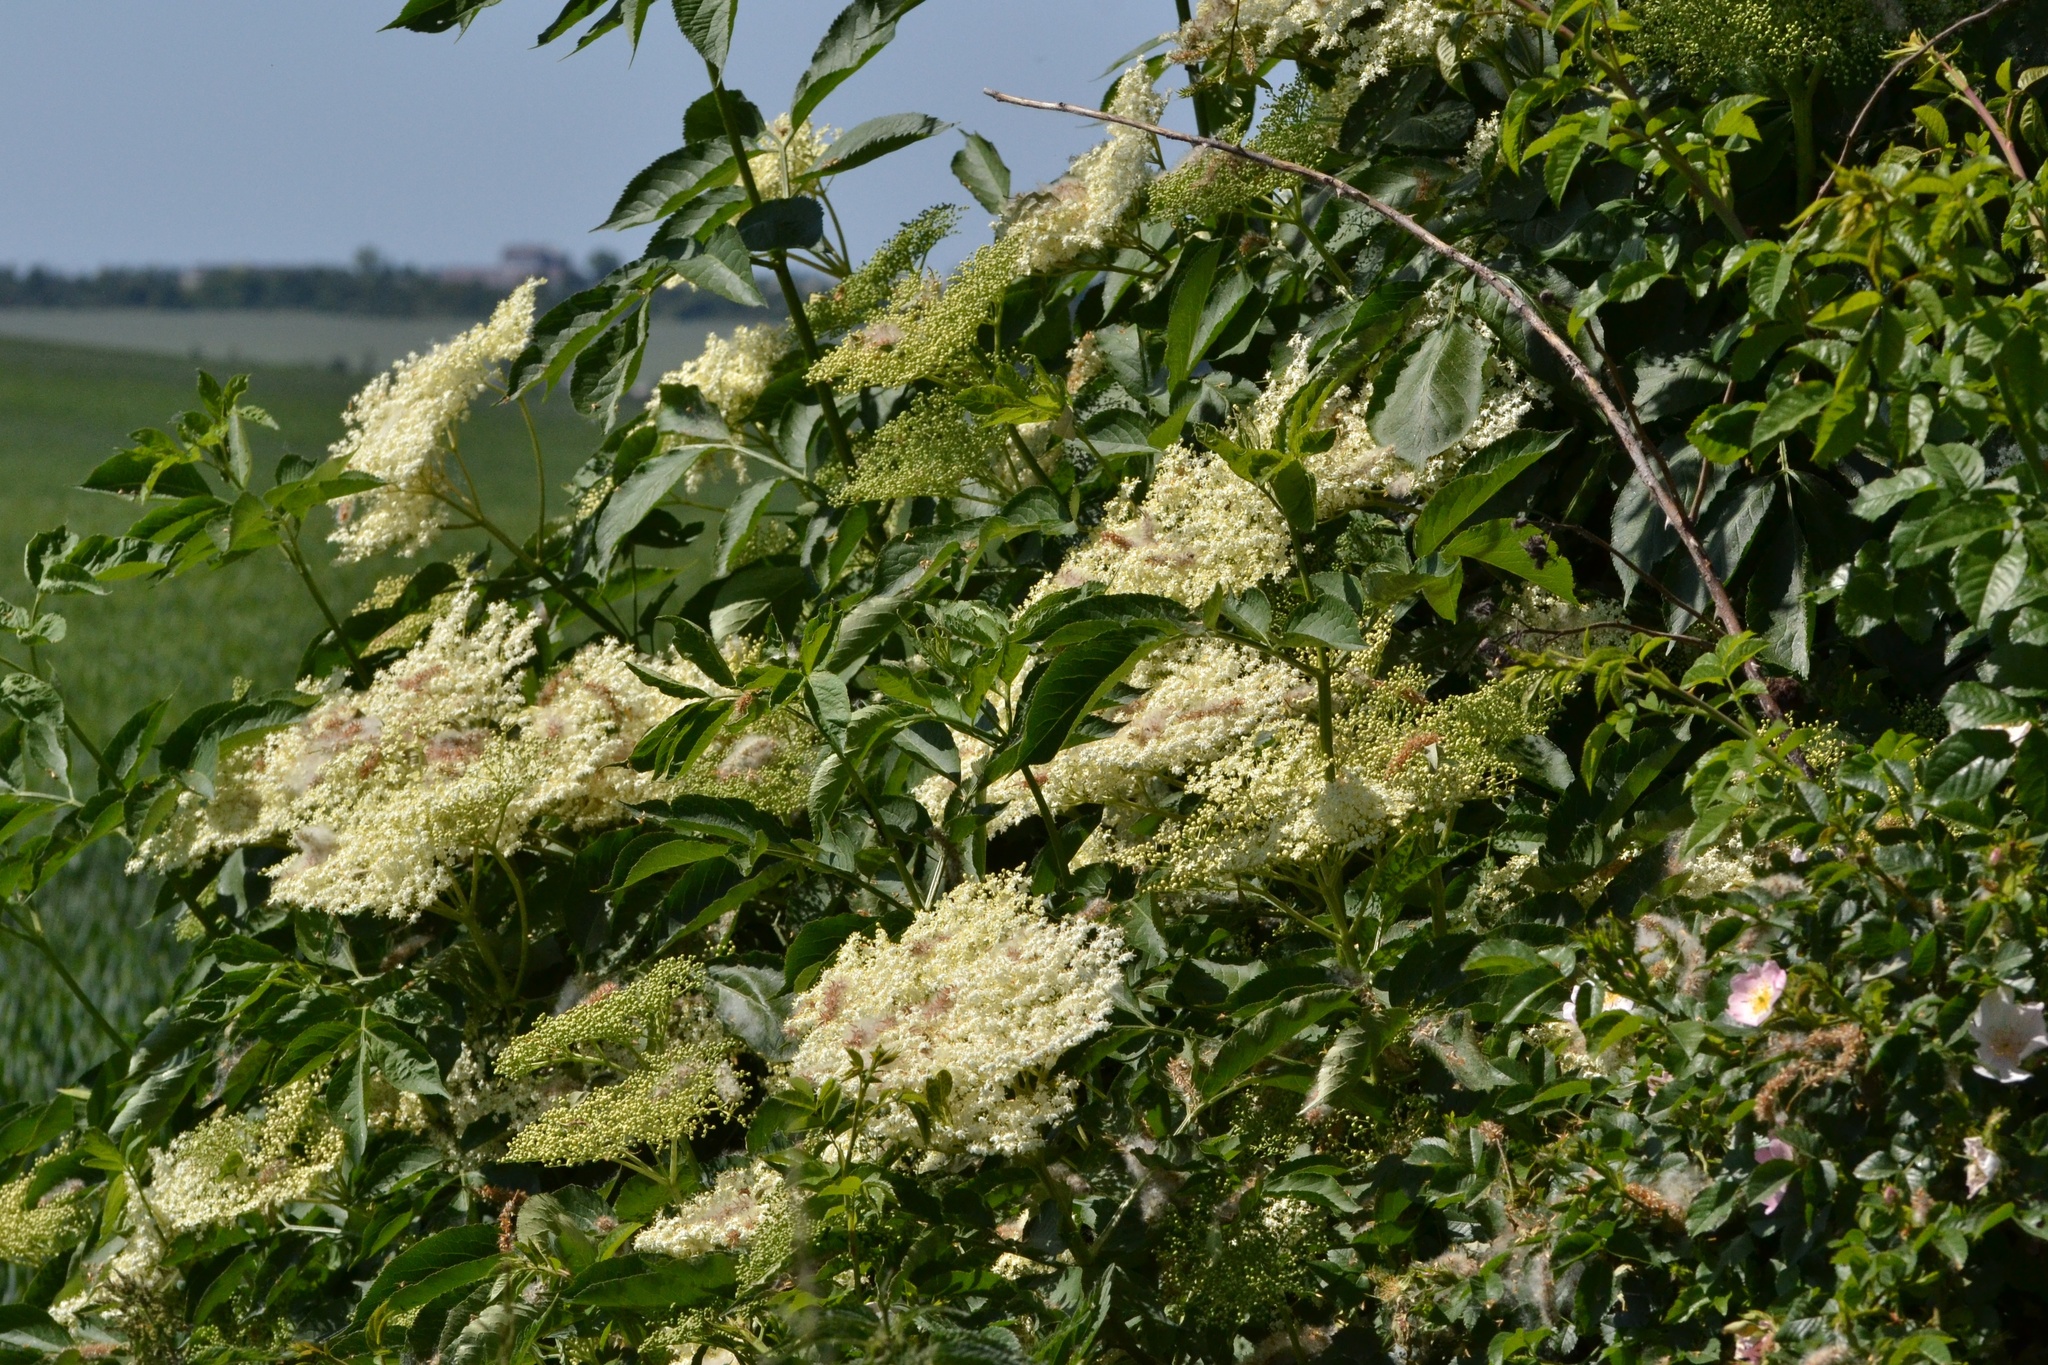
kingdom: Plantae
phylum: Tracheophyta
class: Magnoliopsida
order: Dipsacales
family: Viburnaceae
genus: Sambucus
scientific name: Sambucus nigra
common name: Elder
